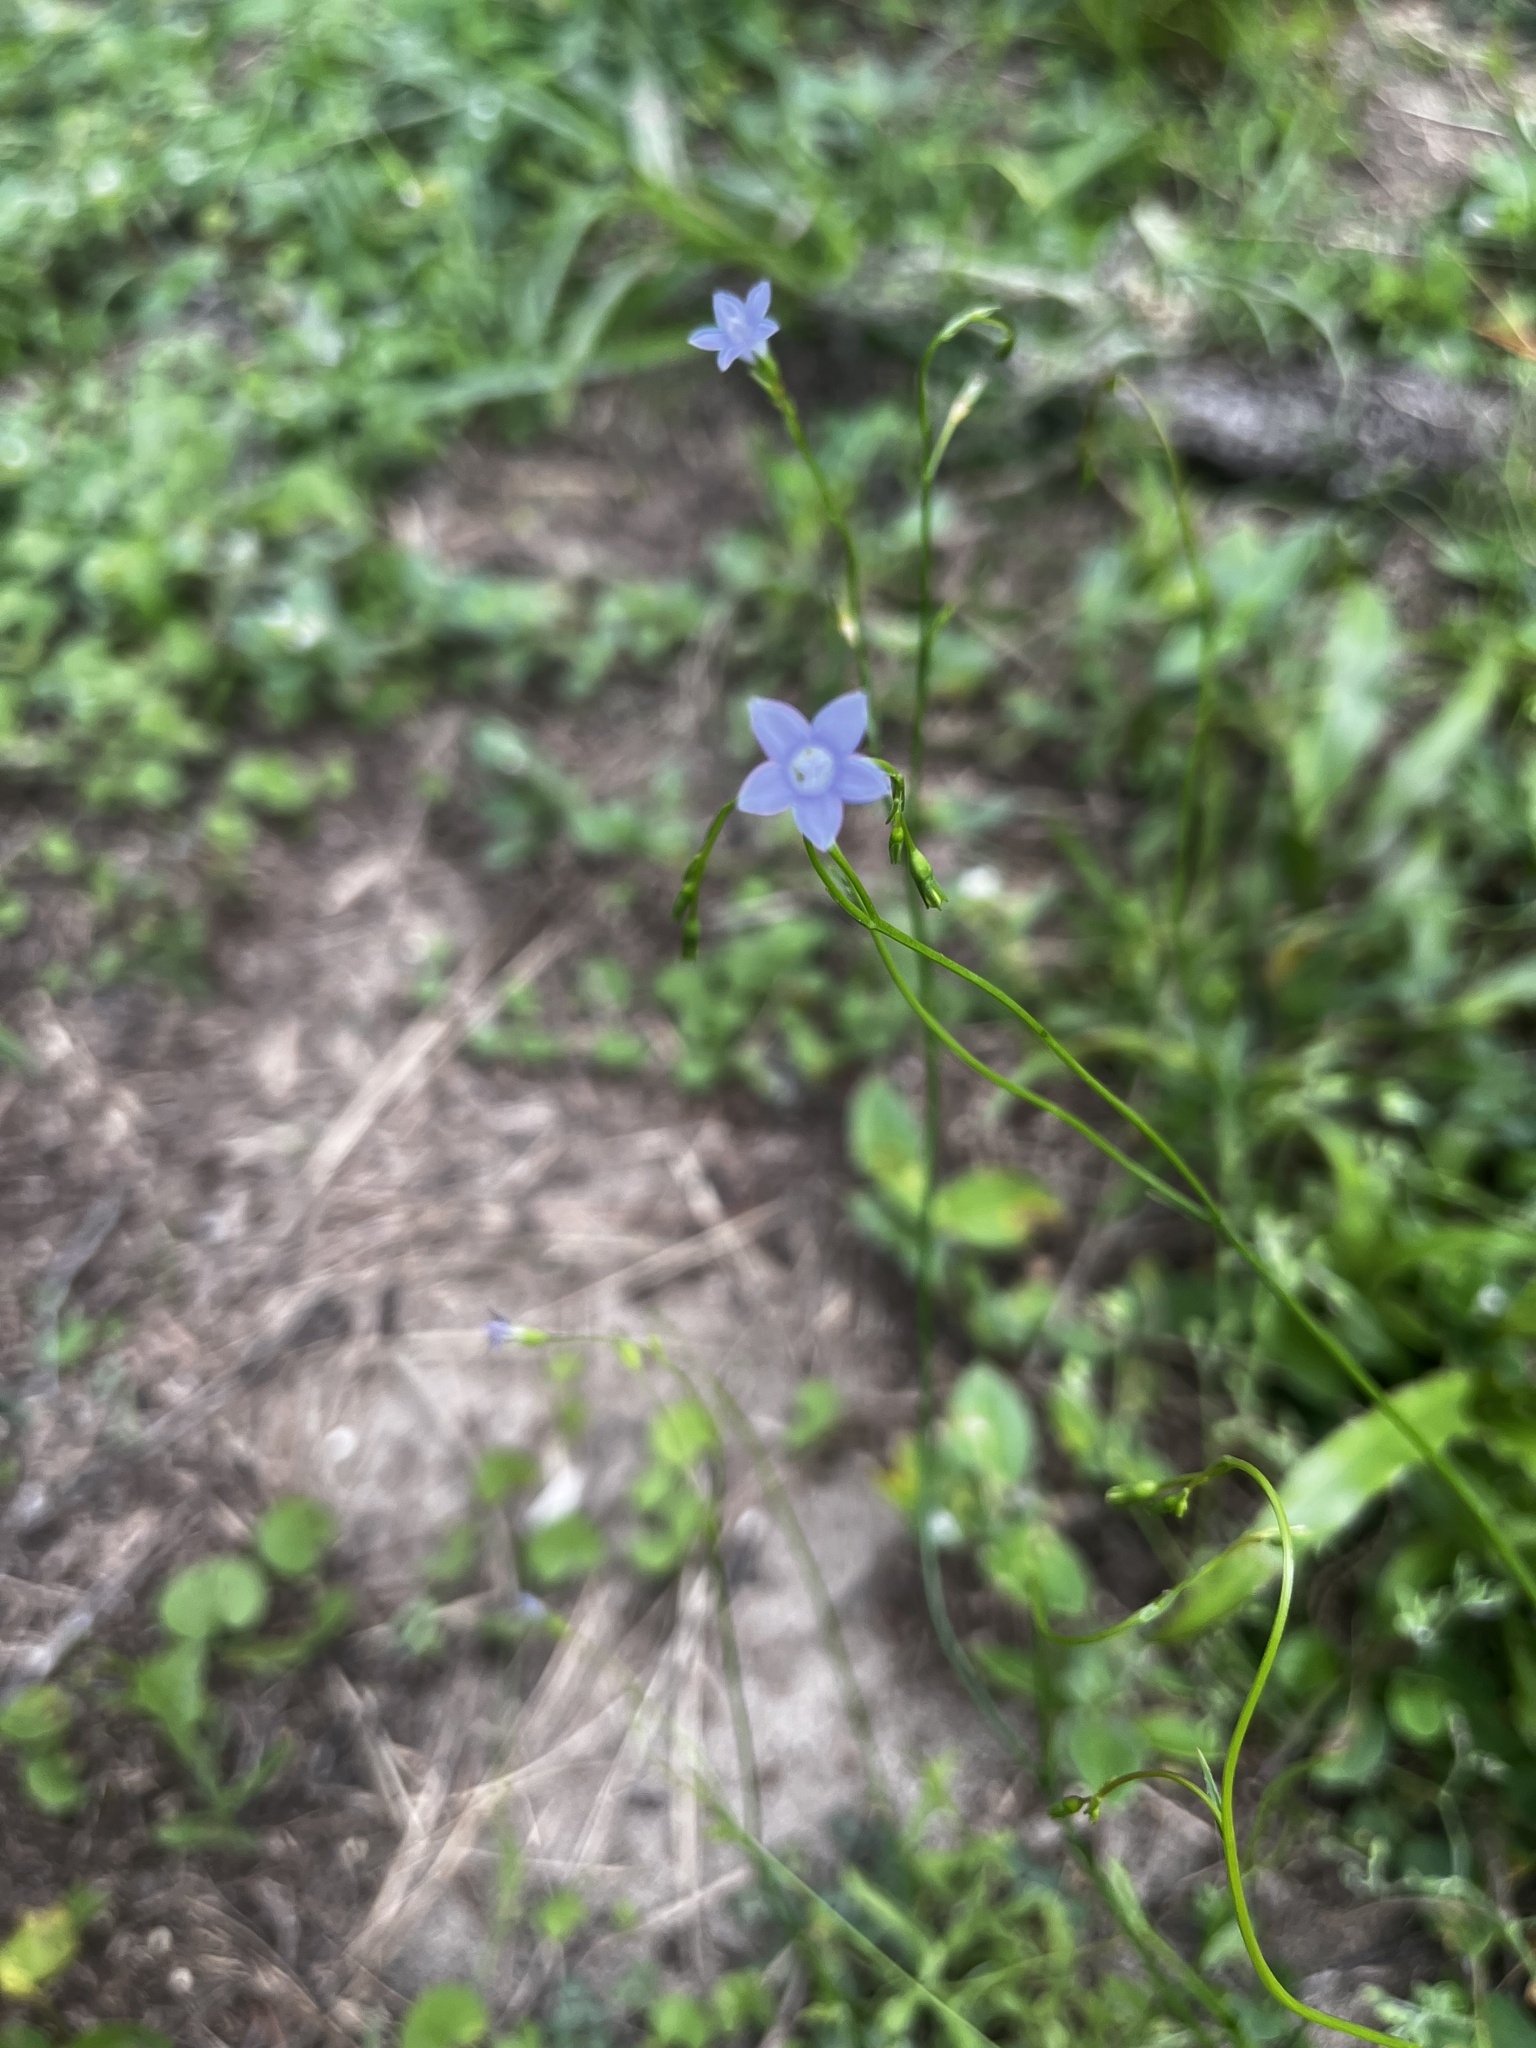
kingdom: Plantae
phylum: Tracheophyta
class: Magnoliopsida
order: Asterales
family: Campanulaceae
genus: Wahlenbergia
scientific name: Wahlenbergia marginata
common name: Southern rockbell
